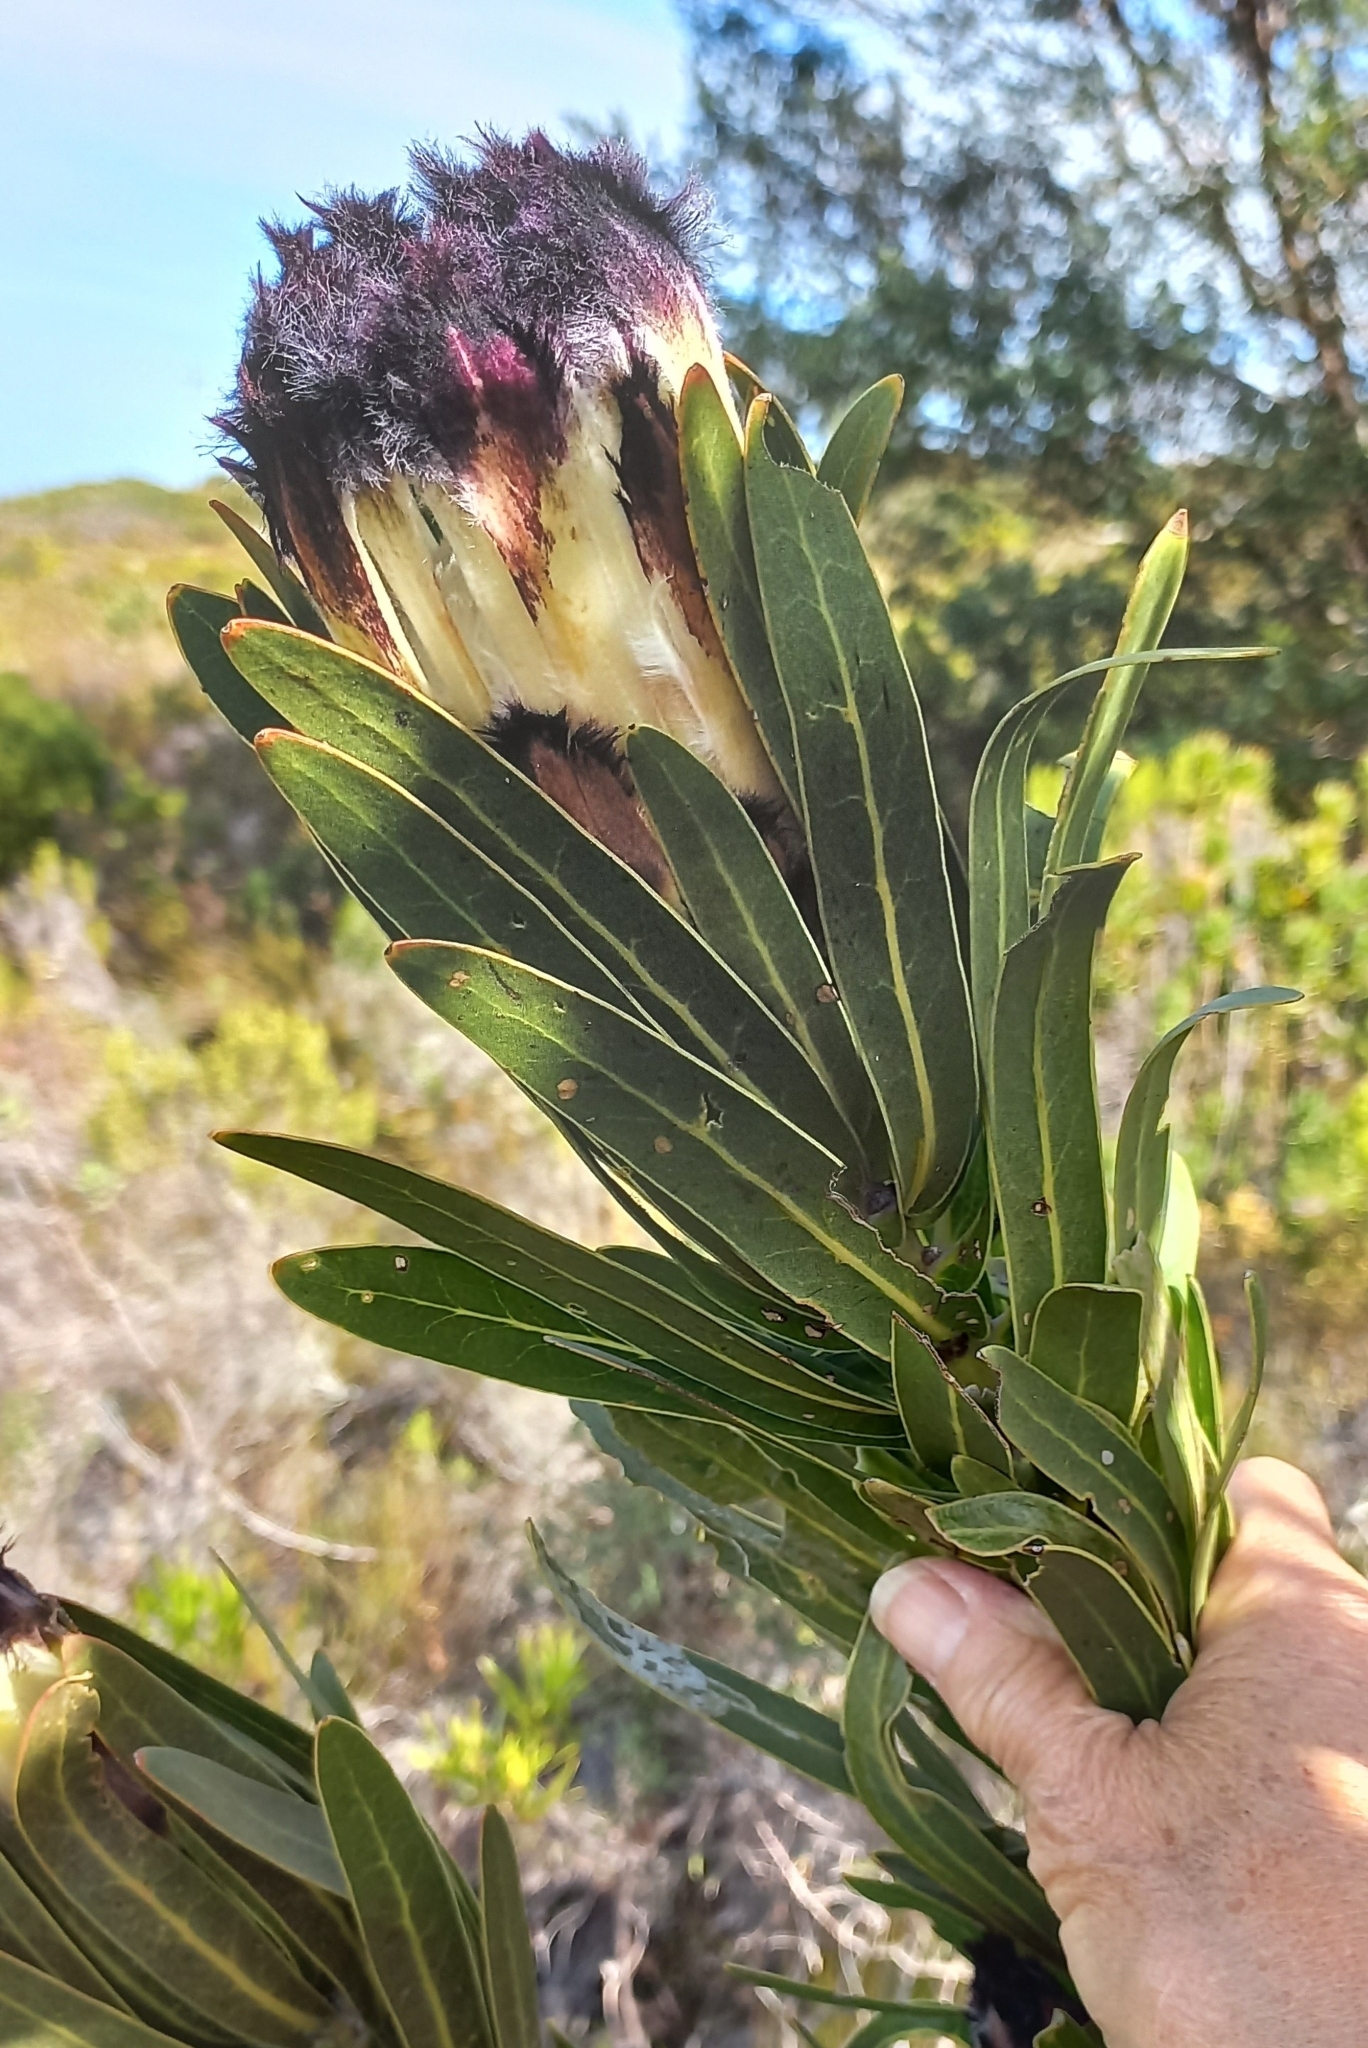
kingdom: Plantae
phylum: Tracheophyta
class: Magnoliopsida
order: Proteales
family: Proteaceae
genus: Protea
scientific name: Protea lepidocarpodendron
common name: Black-bearded protea
